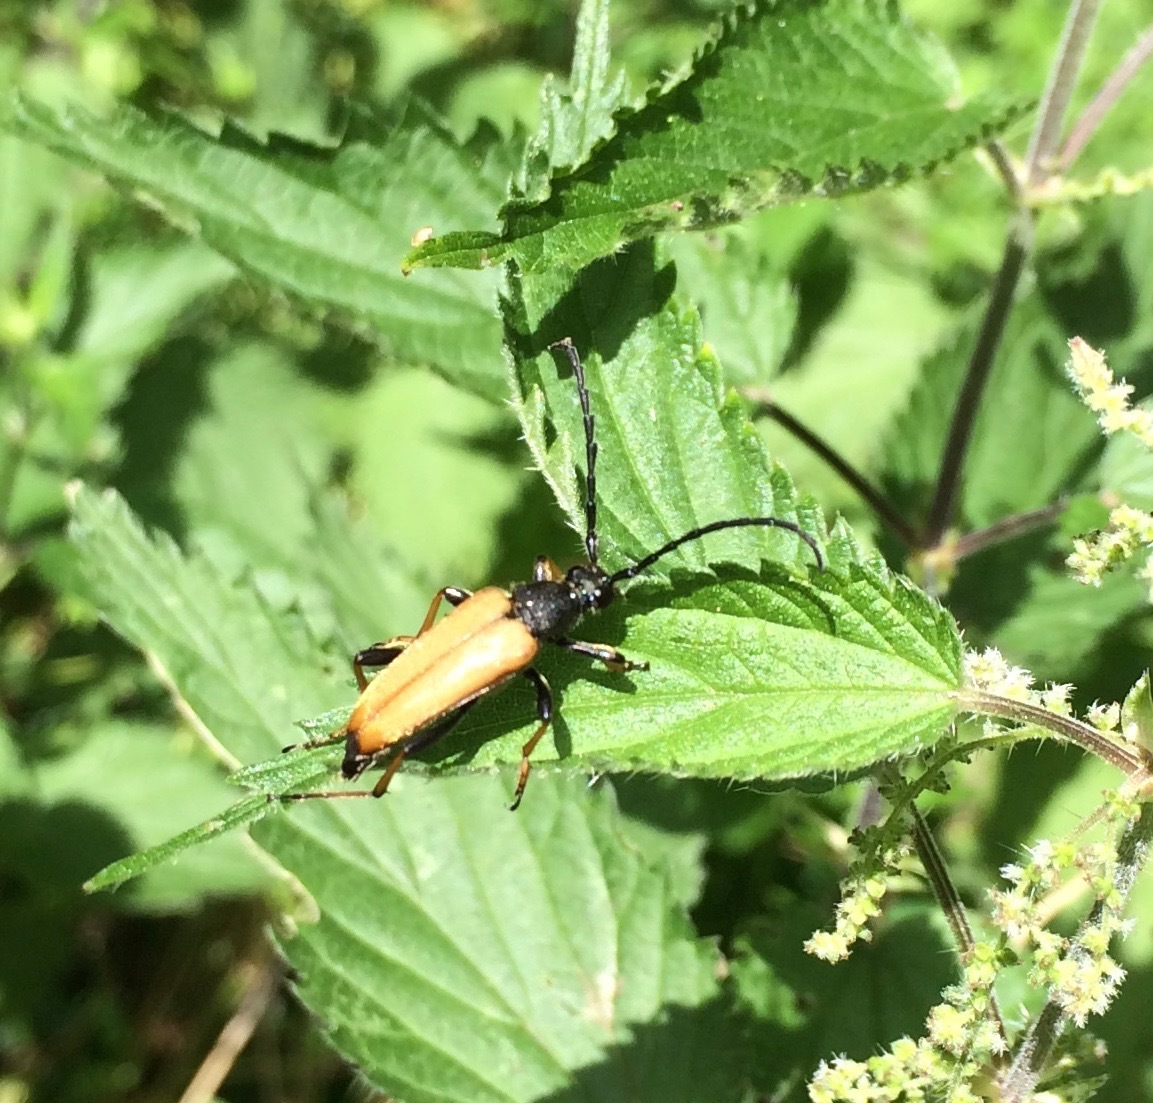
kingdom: Animalia
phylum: Arthropoda
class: Insecta
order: Coleoptera
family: Cerambycidae
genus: Stictoleptura
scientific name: Stictoleptura rubra
